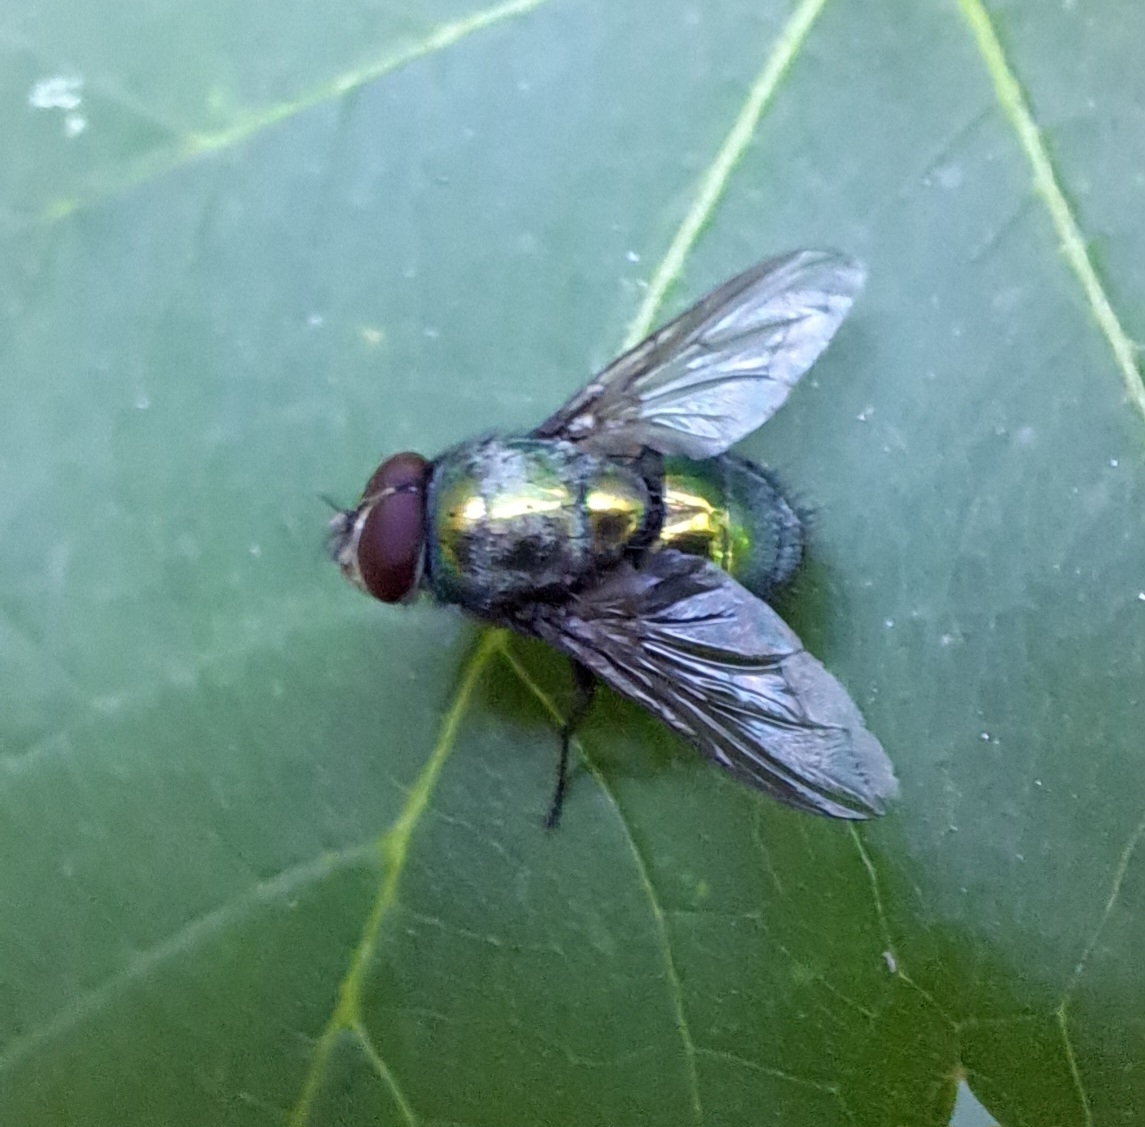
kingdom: Animalia
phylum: Arthropoda
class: Insecta
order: Diptera
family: Calliphoridae
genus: Lucilia
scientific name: Lucilia
